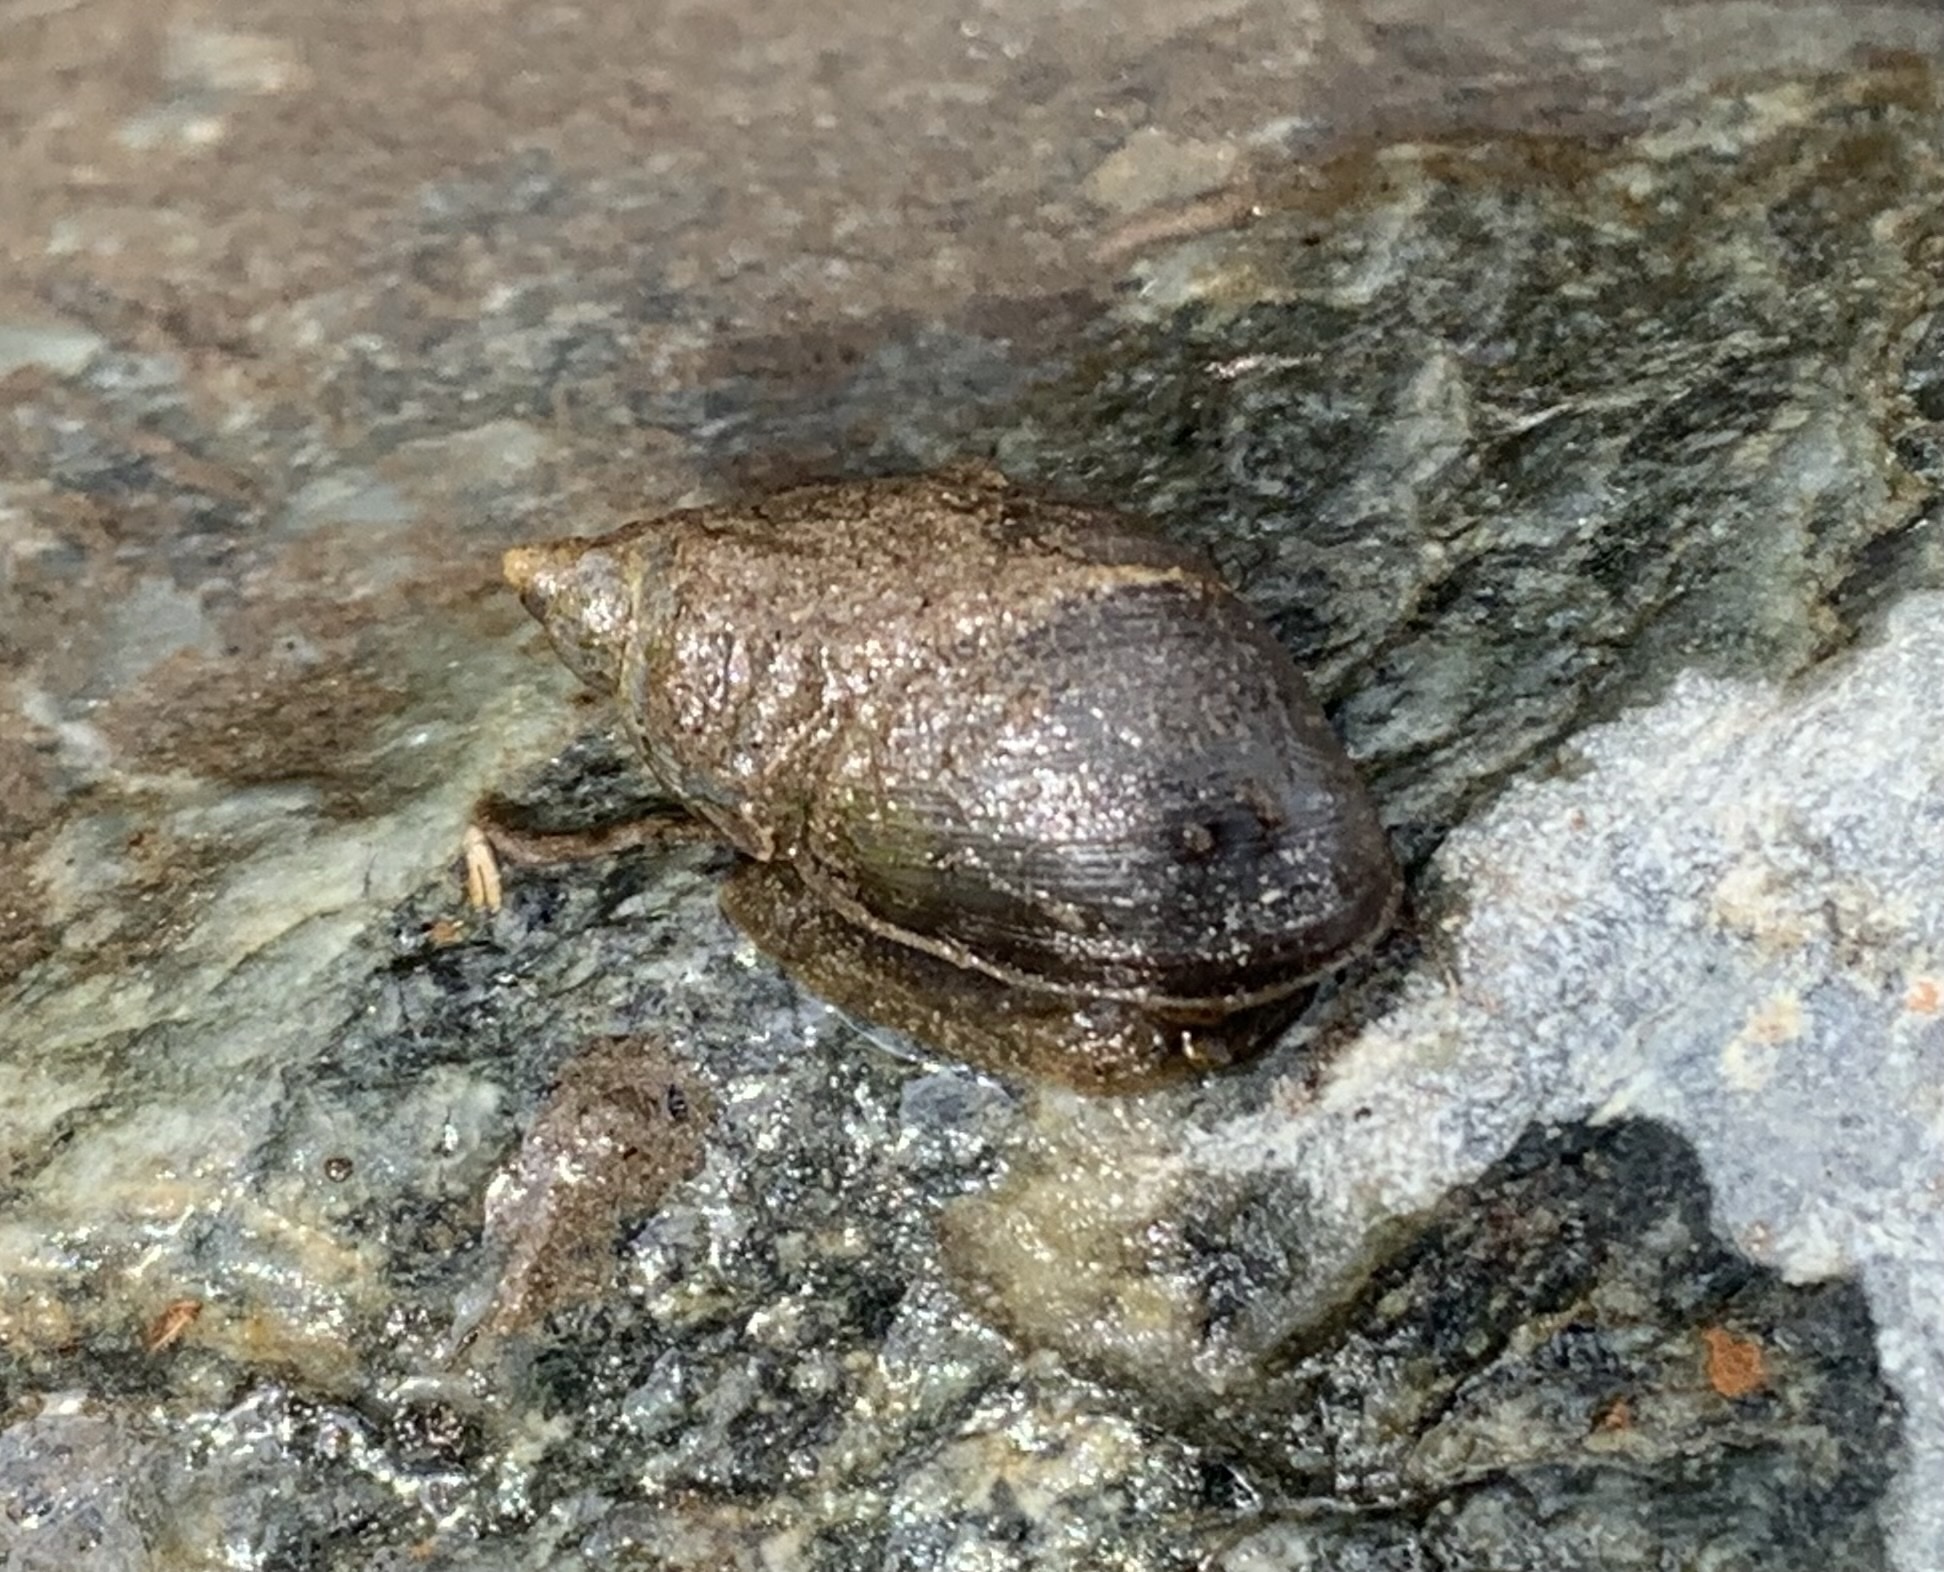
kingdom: Animalia
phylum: Mollusca
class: Gastropoda
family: Lymnaeidae
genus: Peregriana
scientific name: Peregriana peregra
